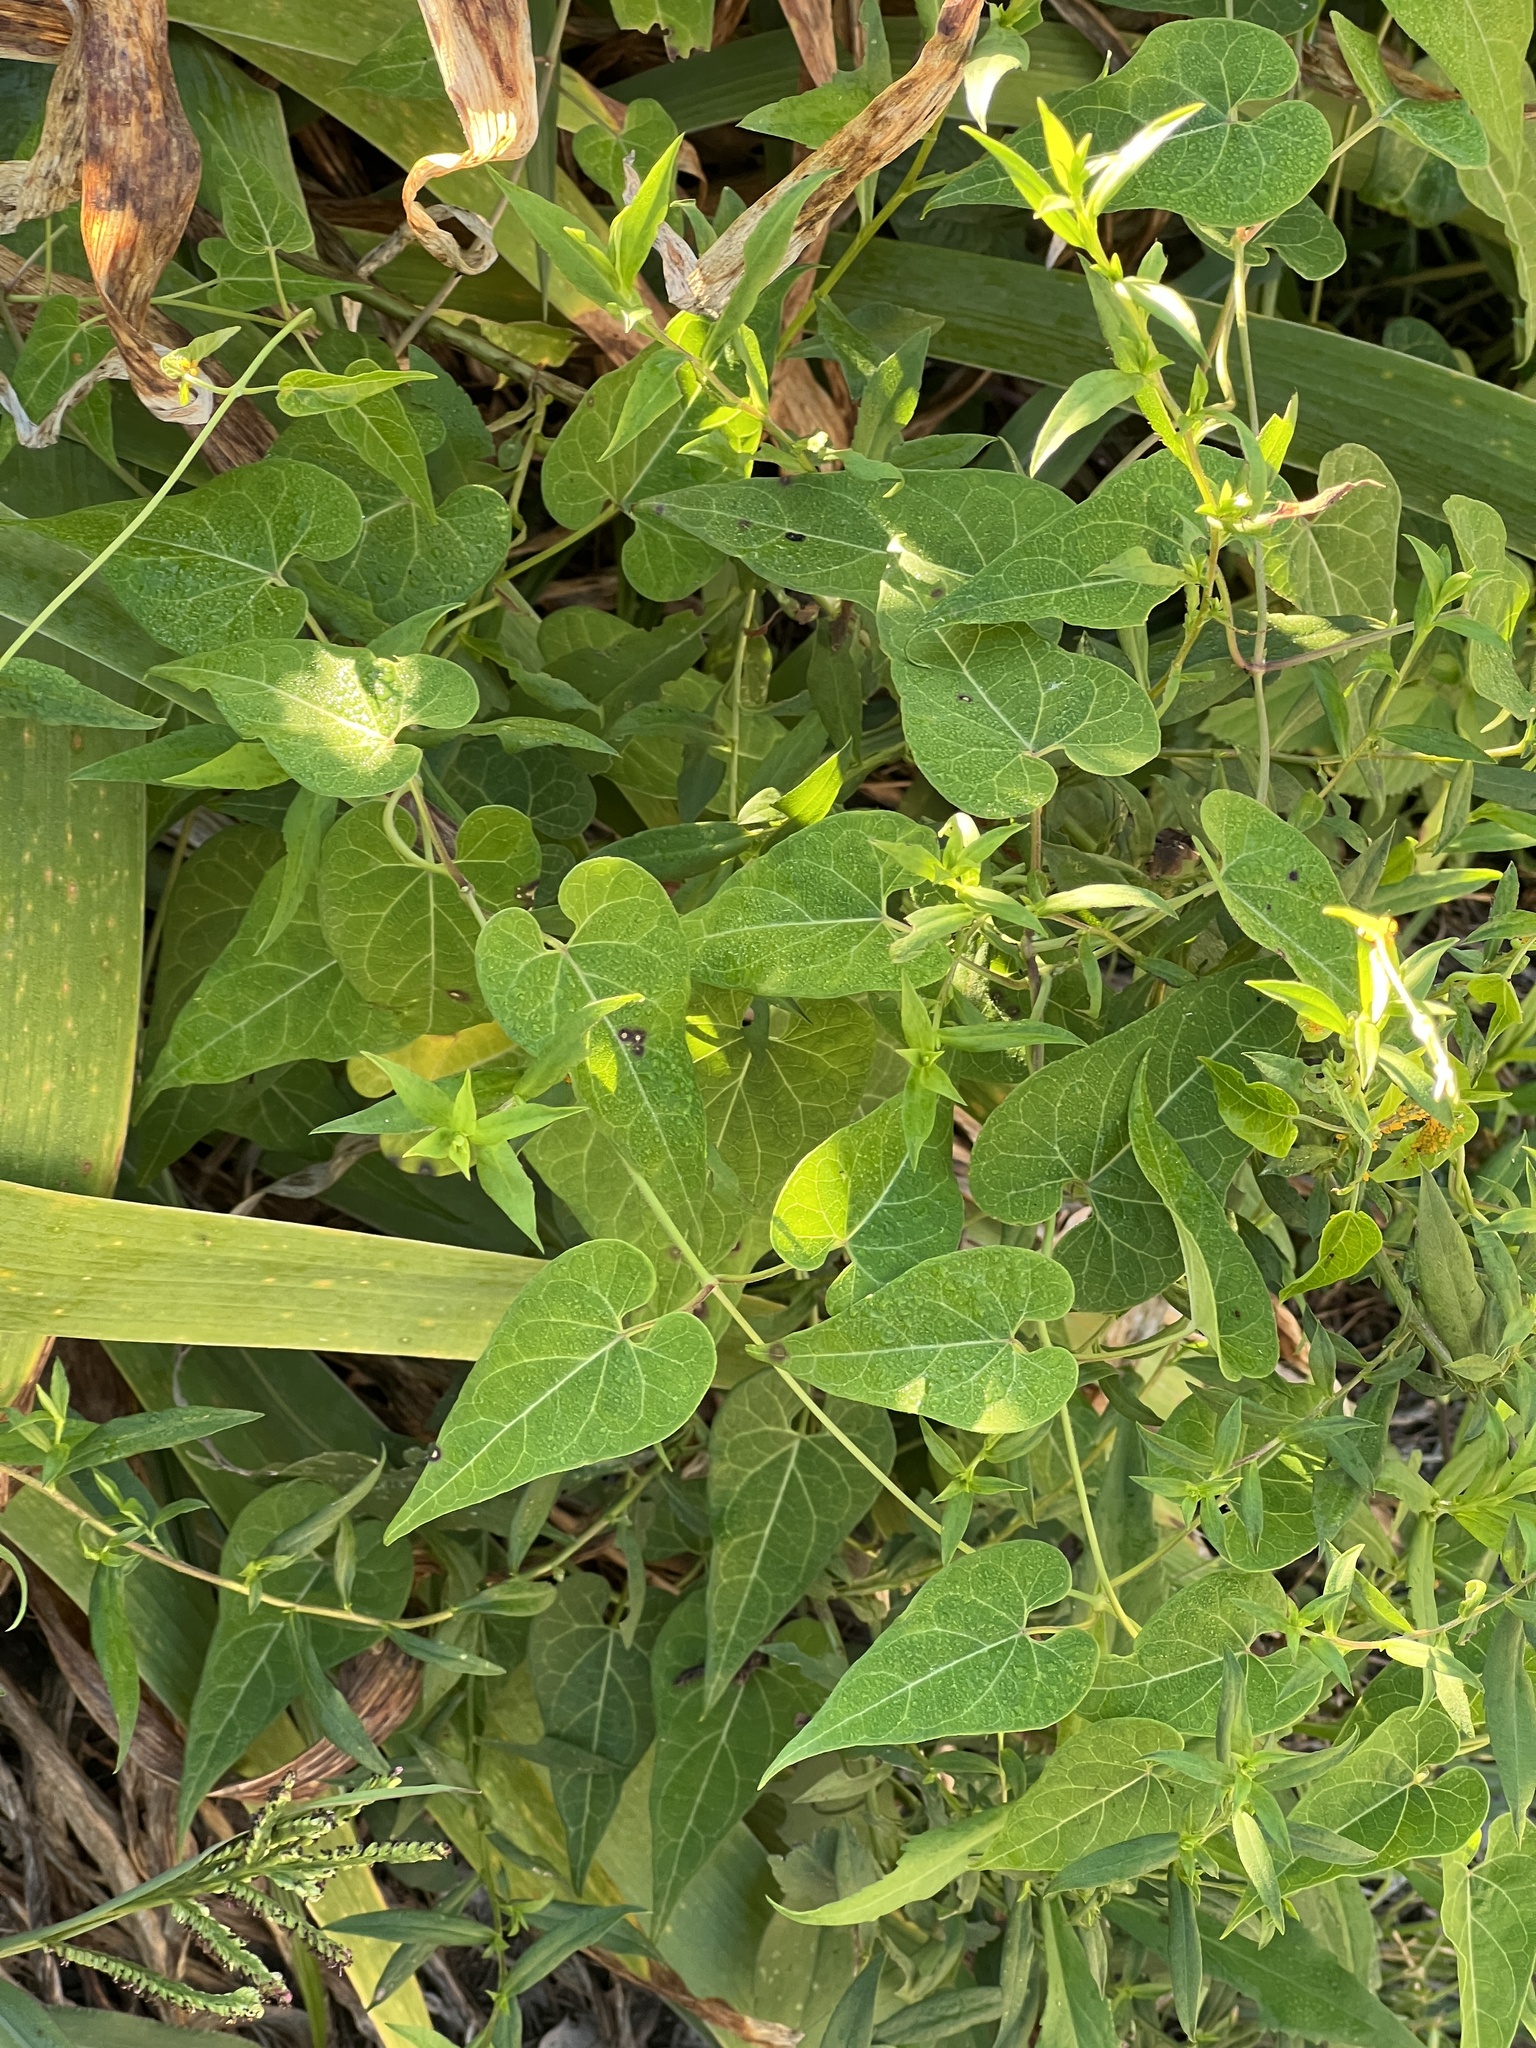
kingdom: Plantae
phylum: Tracheophyta
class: Magnoliopsida
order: Gentianales
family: Apocynaceae
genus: Cynanchum
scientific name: Cynanchum laeve
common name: Sandvine
